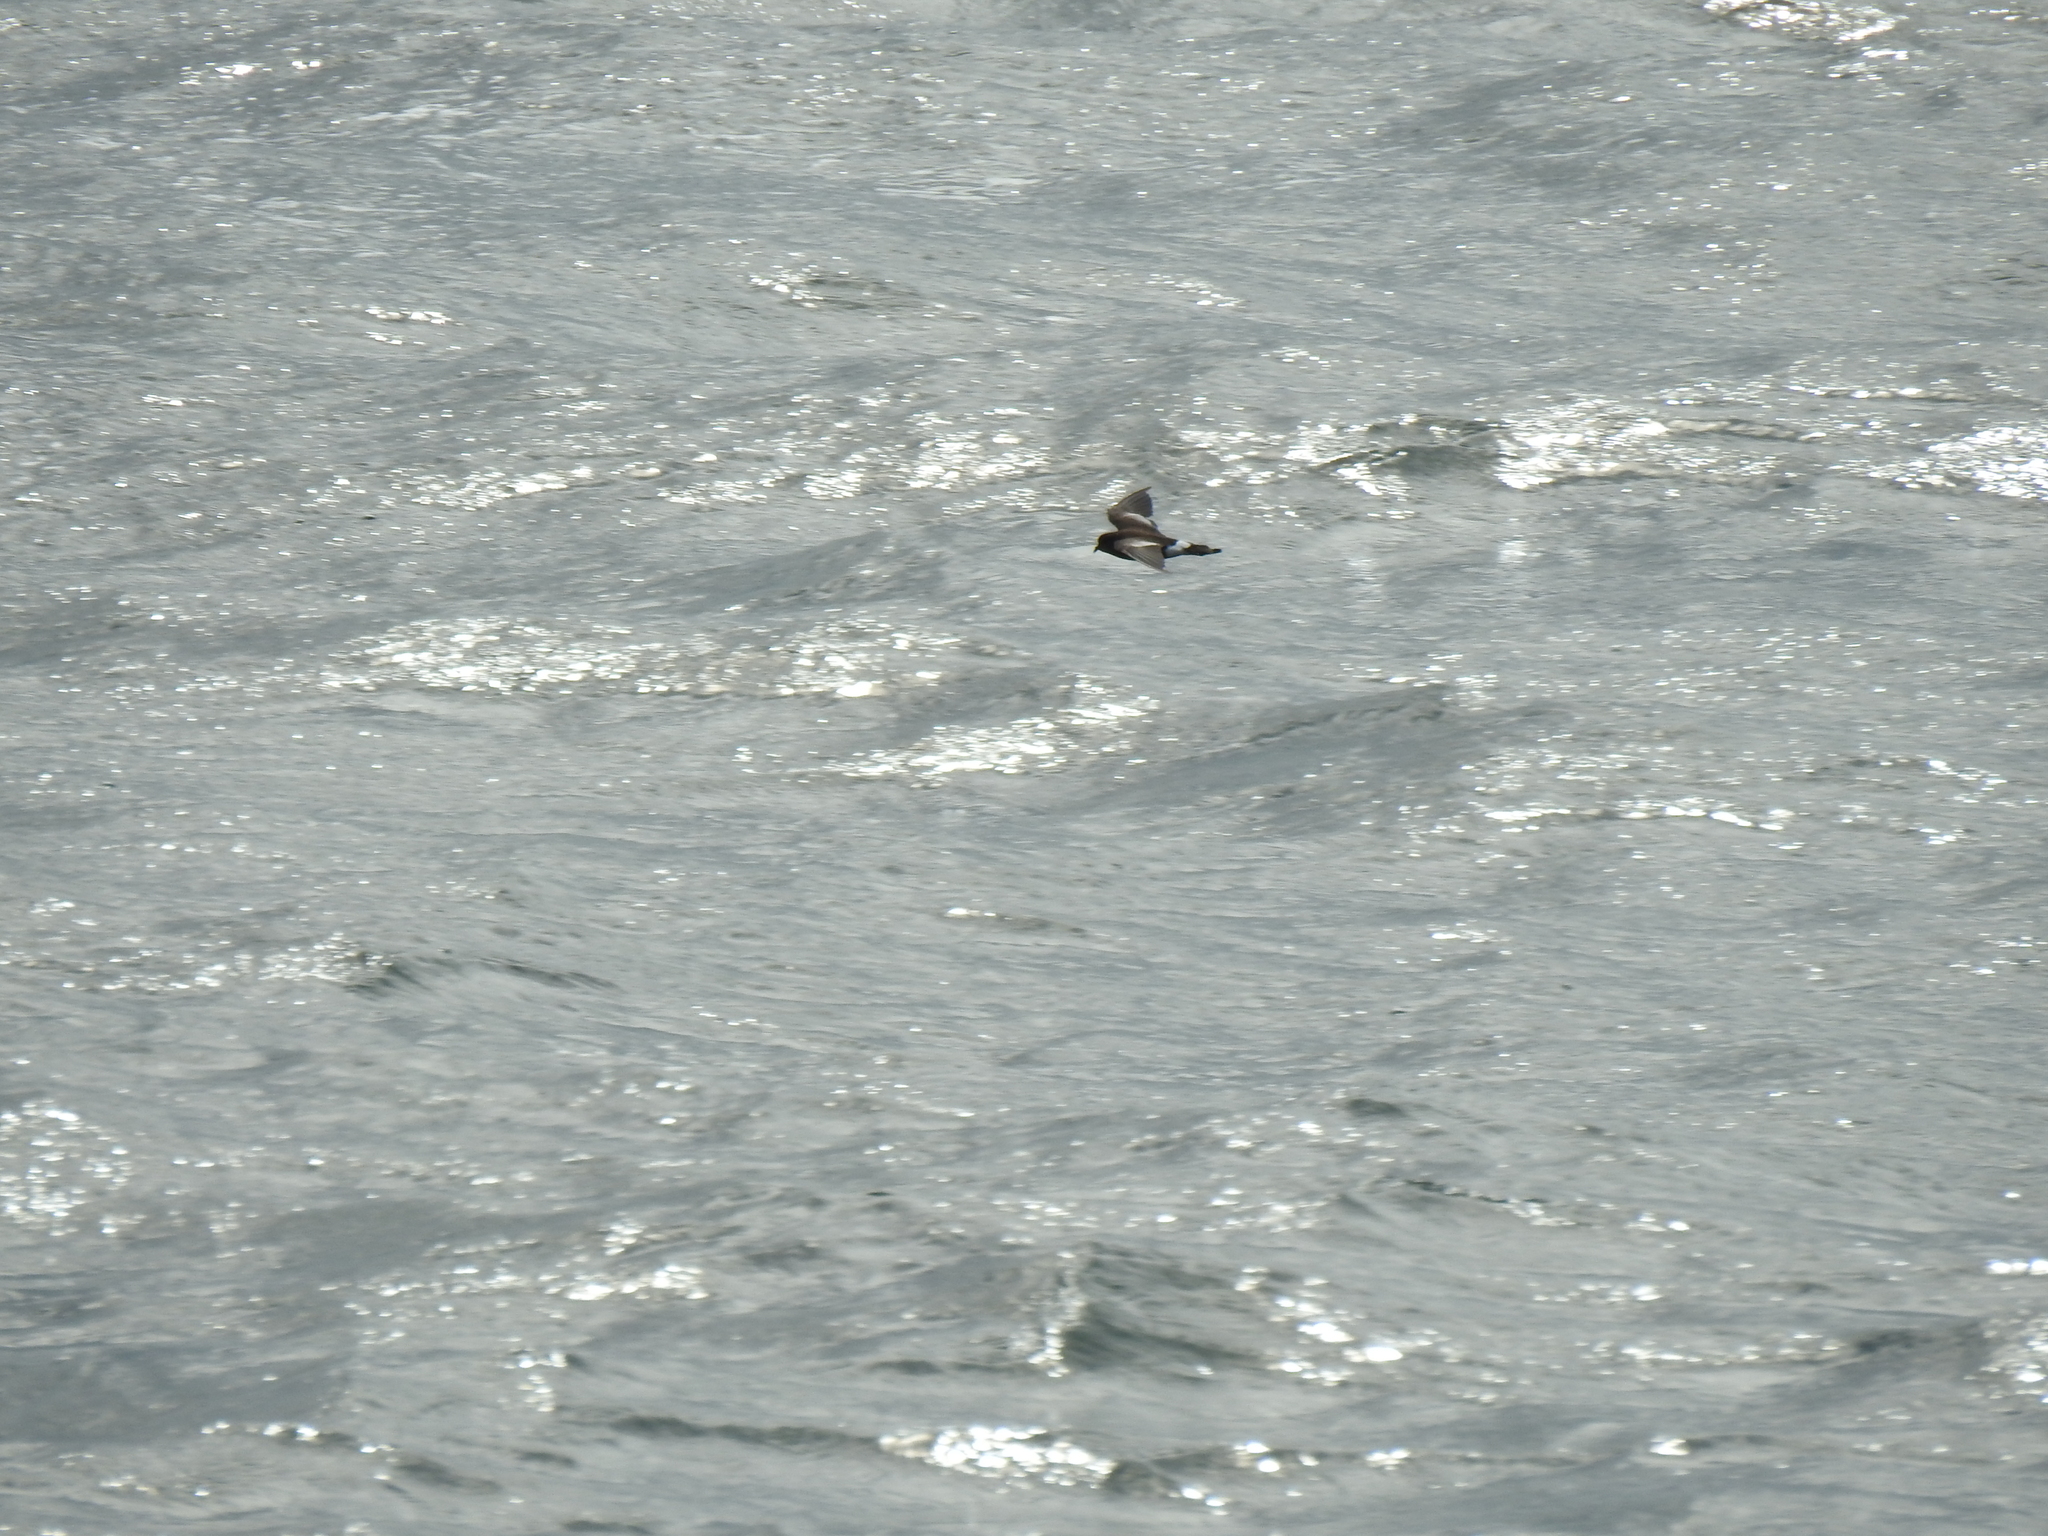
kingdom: Animalia
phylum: Chordata
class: Aves
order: Procellariiformes
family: Hydrobatidae
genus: Oceanites
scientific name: Oceanites oceanicus
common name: Wilson's storm petrel
